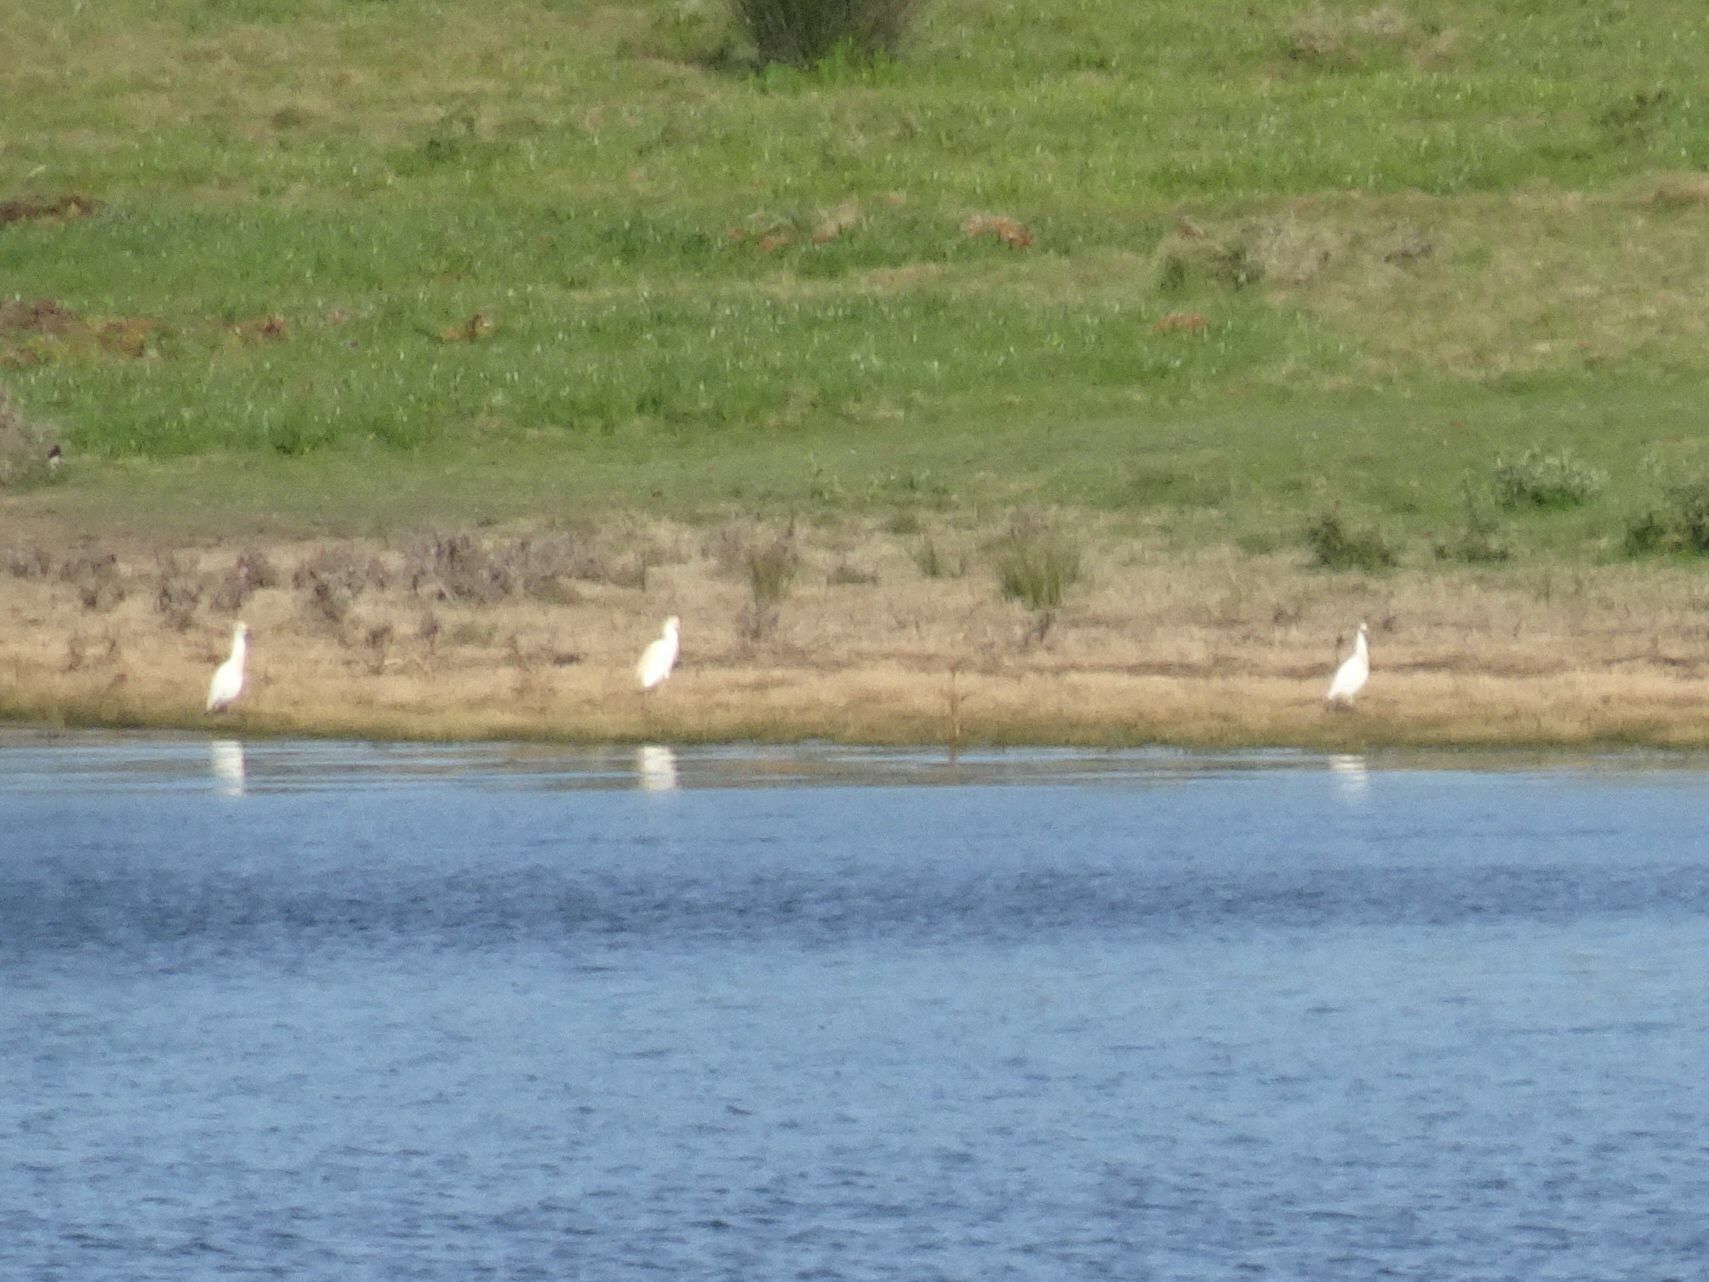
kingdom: Animalia
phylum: Chordata
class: Aves
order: Pelecaniformes
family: Ardeidae
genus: Bubulcus
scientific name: Bubulcus ibis
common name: Cattle egret
